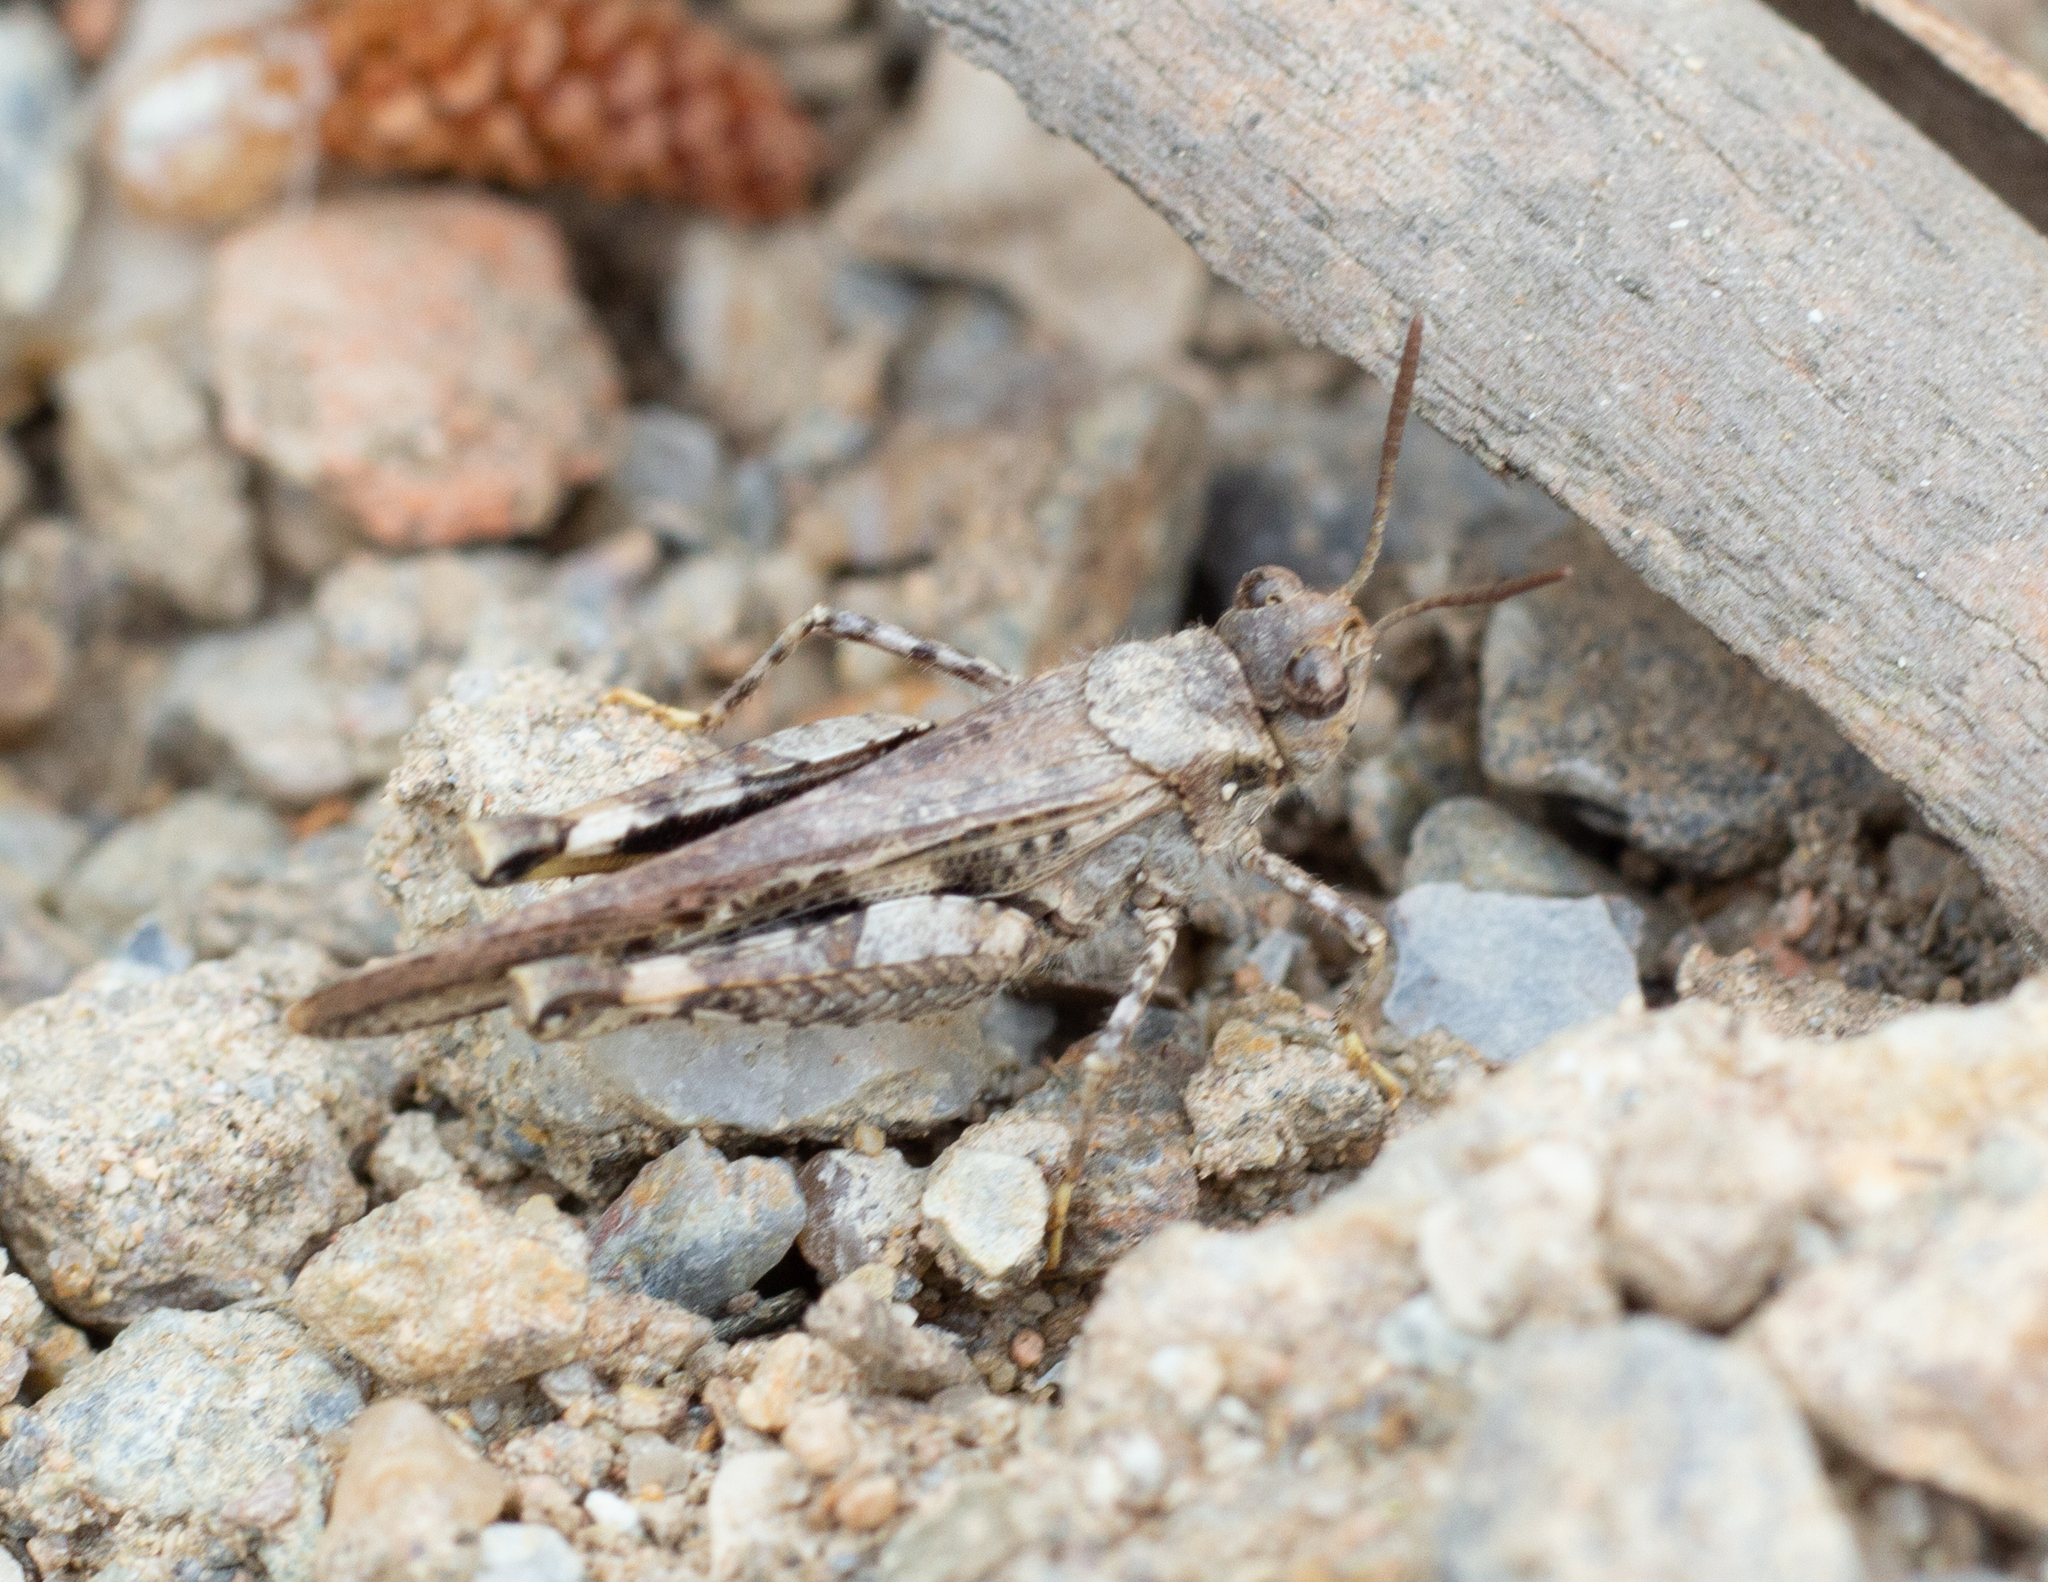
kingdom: Animalia
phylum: Arthropoda
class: Insecta
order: Orthoptera
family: Acrididae
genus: Acrotylus
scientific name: Acrotylus insubricus
